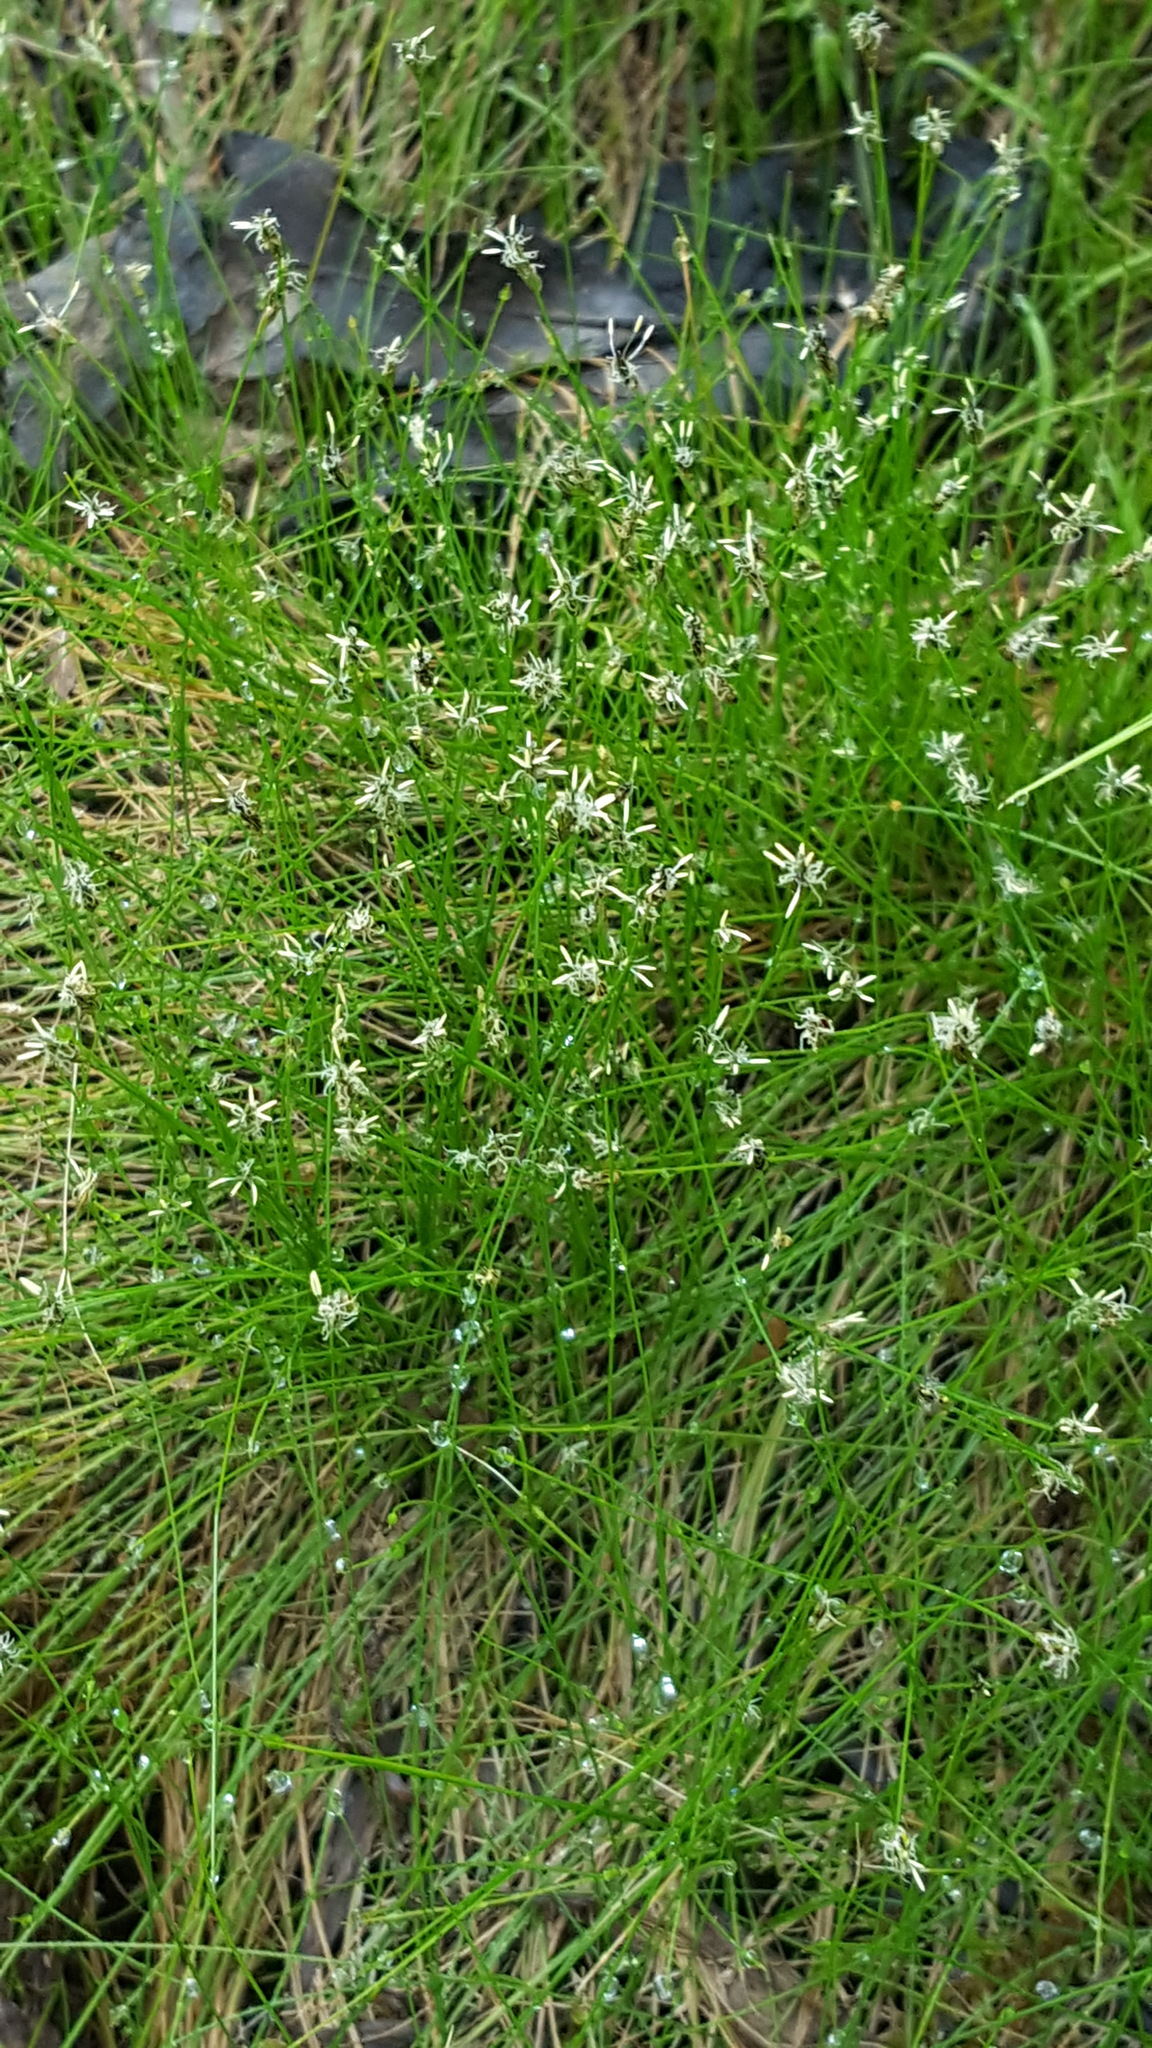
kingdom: Plantae
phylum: Tracheophyta
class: Liliopsida
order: Poales
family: Cyperaceae
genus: Eleocharis
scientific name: Eleocharis acicularis
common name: Needle spike-rush
